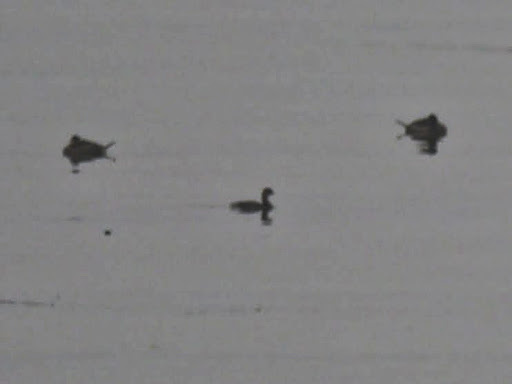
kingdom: Animalia
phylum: Chordata
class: Aves
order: Podicipediformes
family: Podicipedidae
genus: Podilymbus
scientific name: Podilymbus podiceps
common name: Pied-billed grebe
